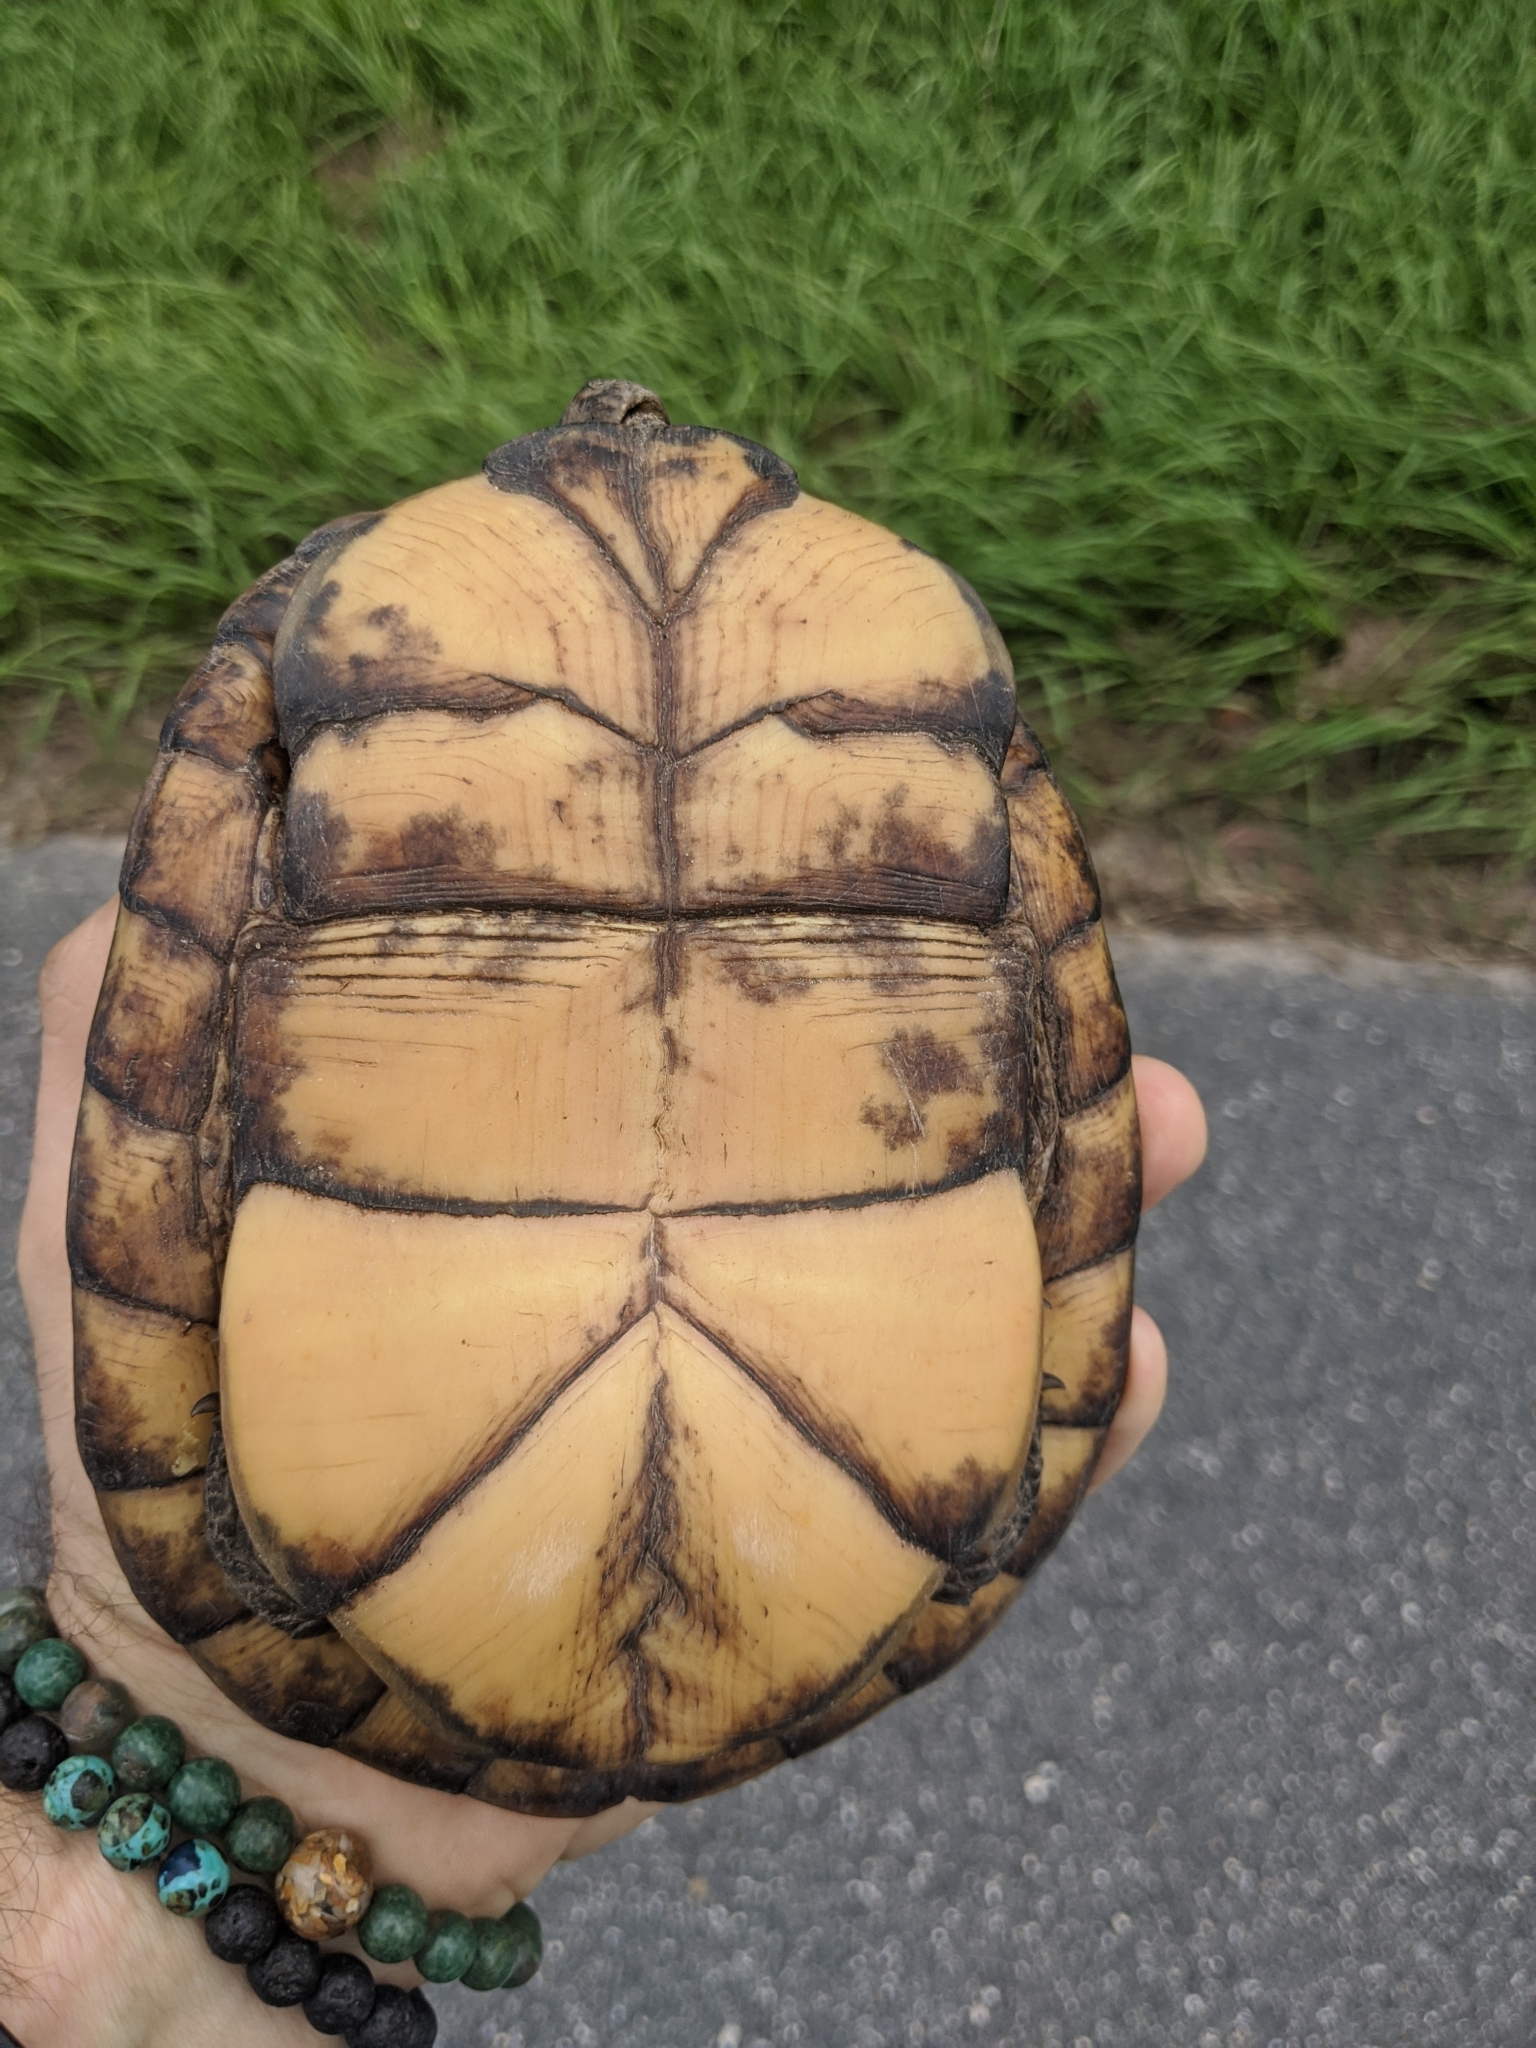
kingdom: Animalia
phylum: Chordata
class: Testudines
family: Emydidae
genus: Terrapene
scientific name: Terrapene carolina
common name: Common box turtle
